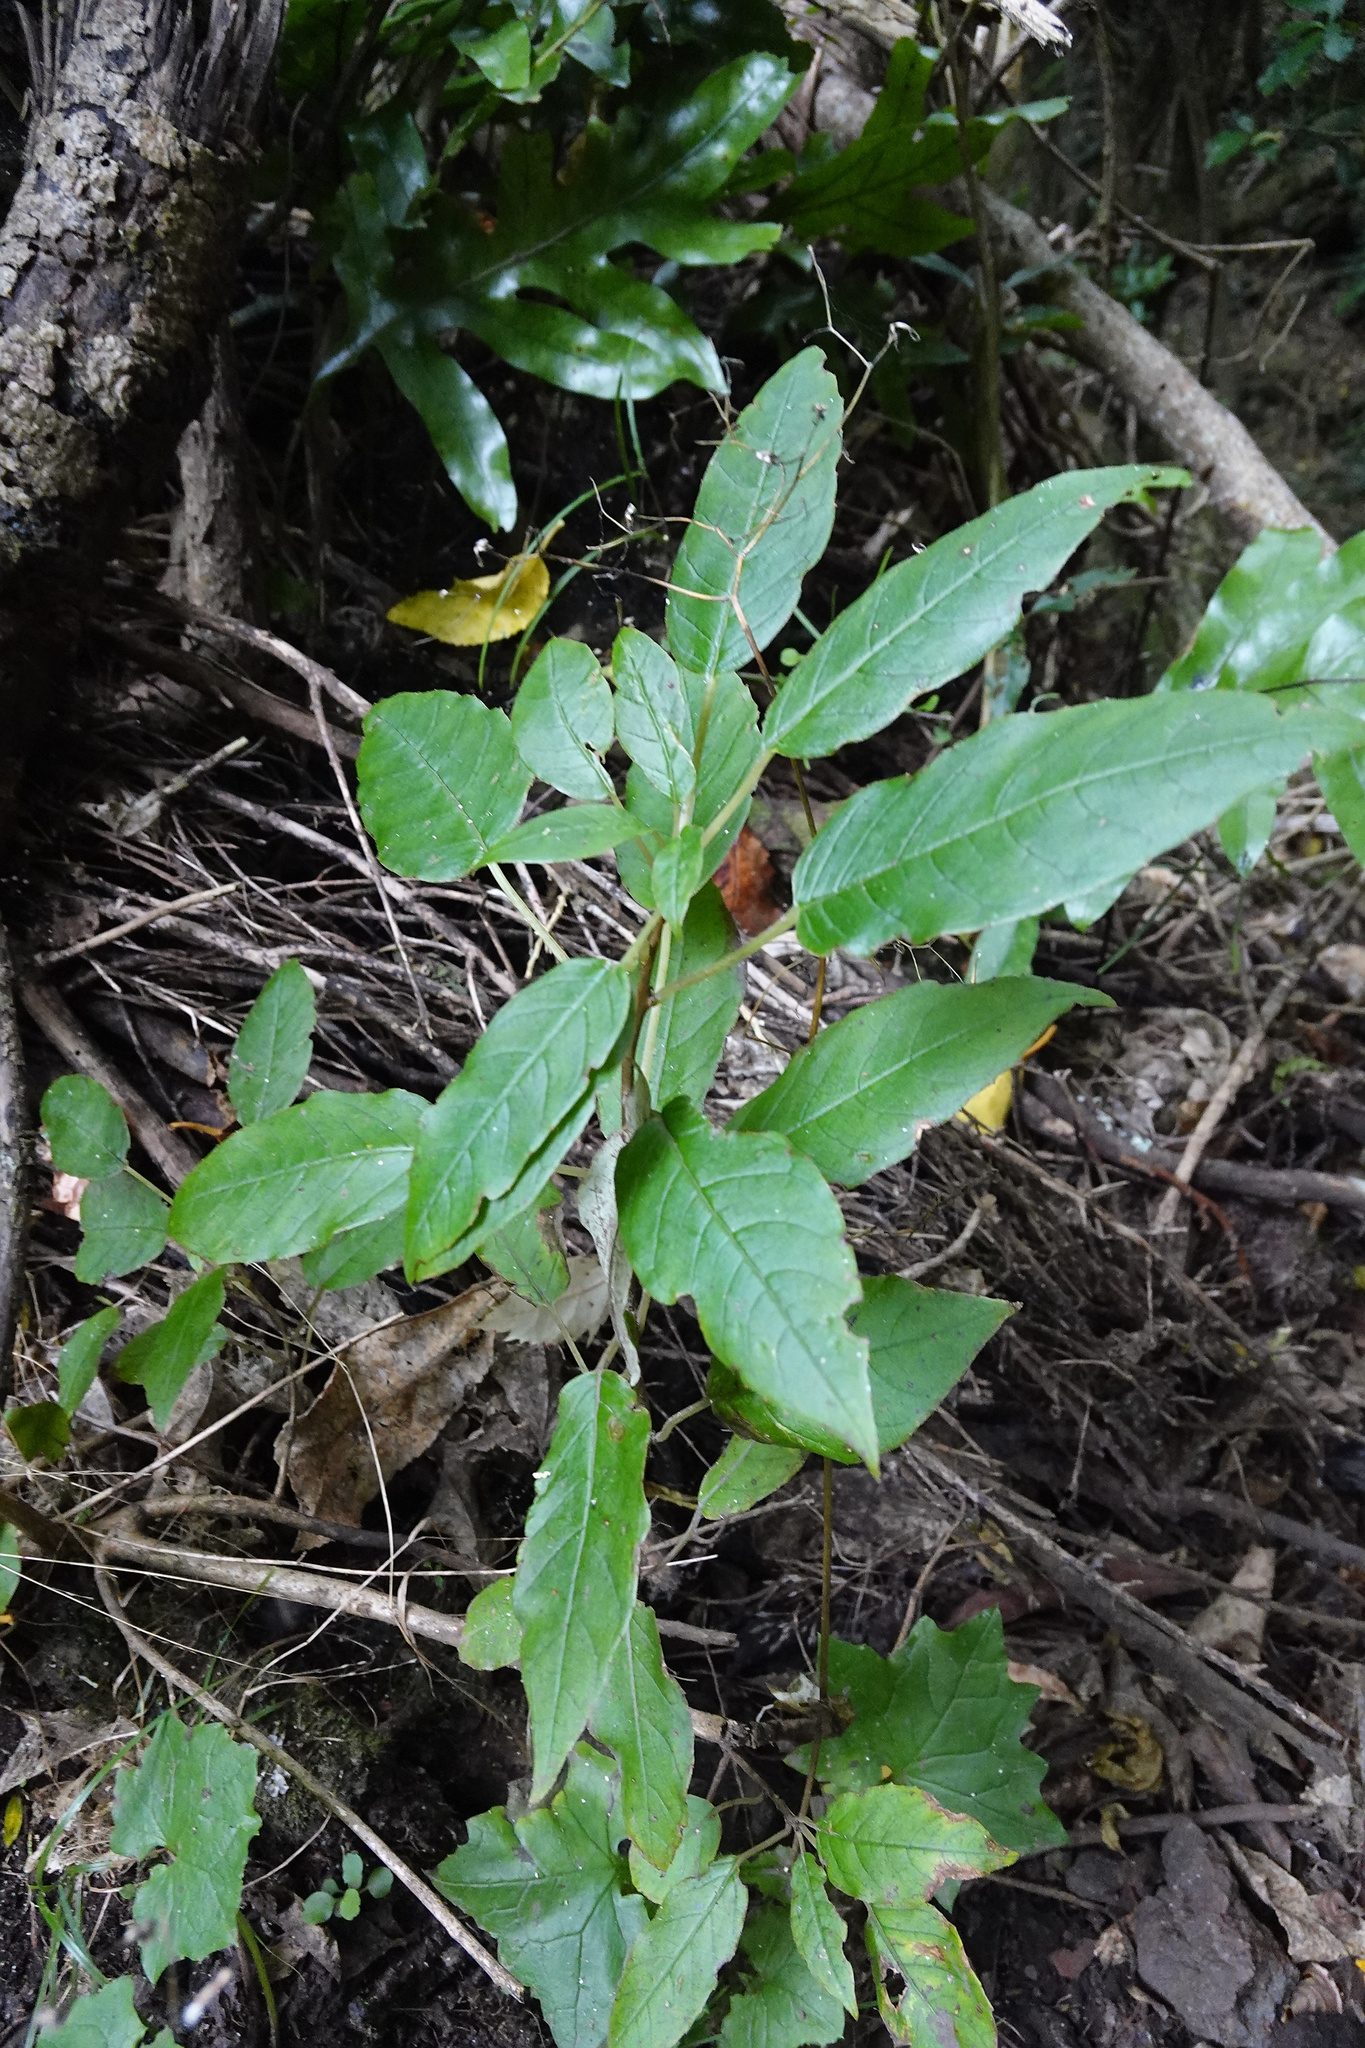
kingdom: Plantae
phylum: Tracheophyta
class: Magnoliopsida
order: Myrtales
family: Onagraceae
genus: Fuchsia
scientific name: Fuchsia excorticata
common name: Tree fuchsia
